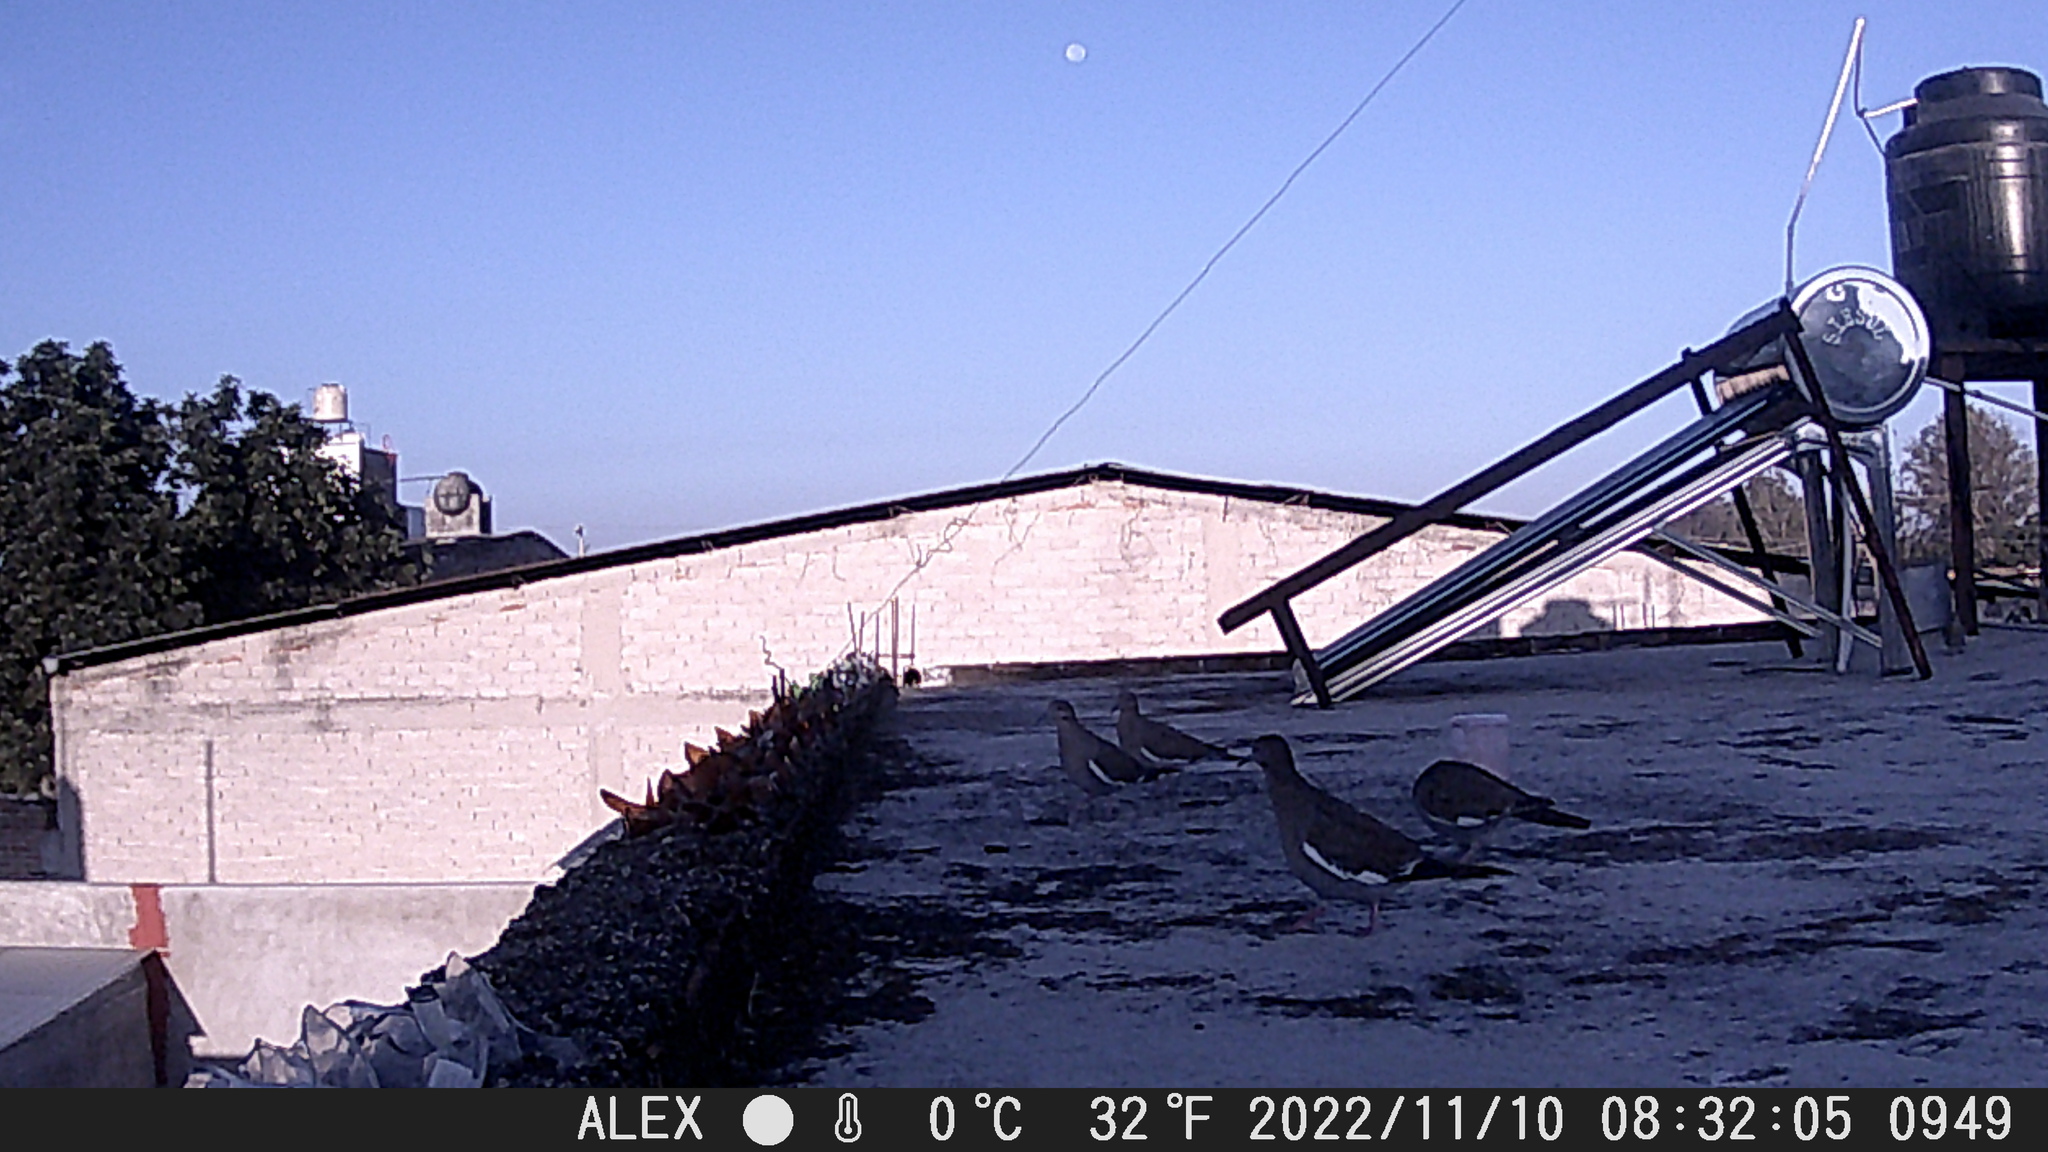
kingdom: Animalia
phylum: Chordata
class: Aves
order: Columbiformes
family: Columbidae
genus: Zenaida
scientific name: Zenaida asiatica
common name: White-winged dove
